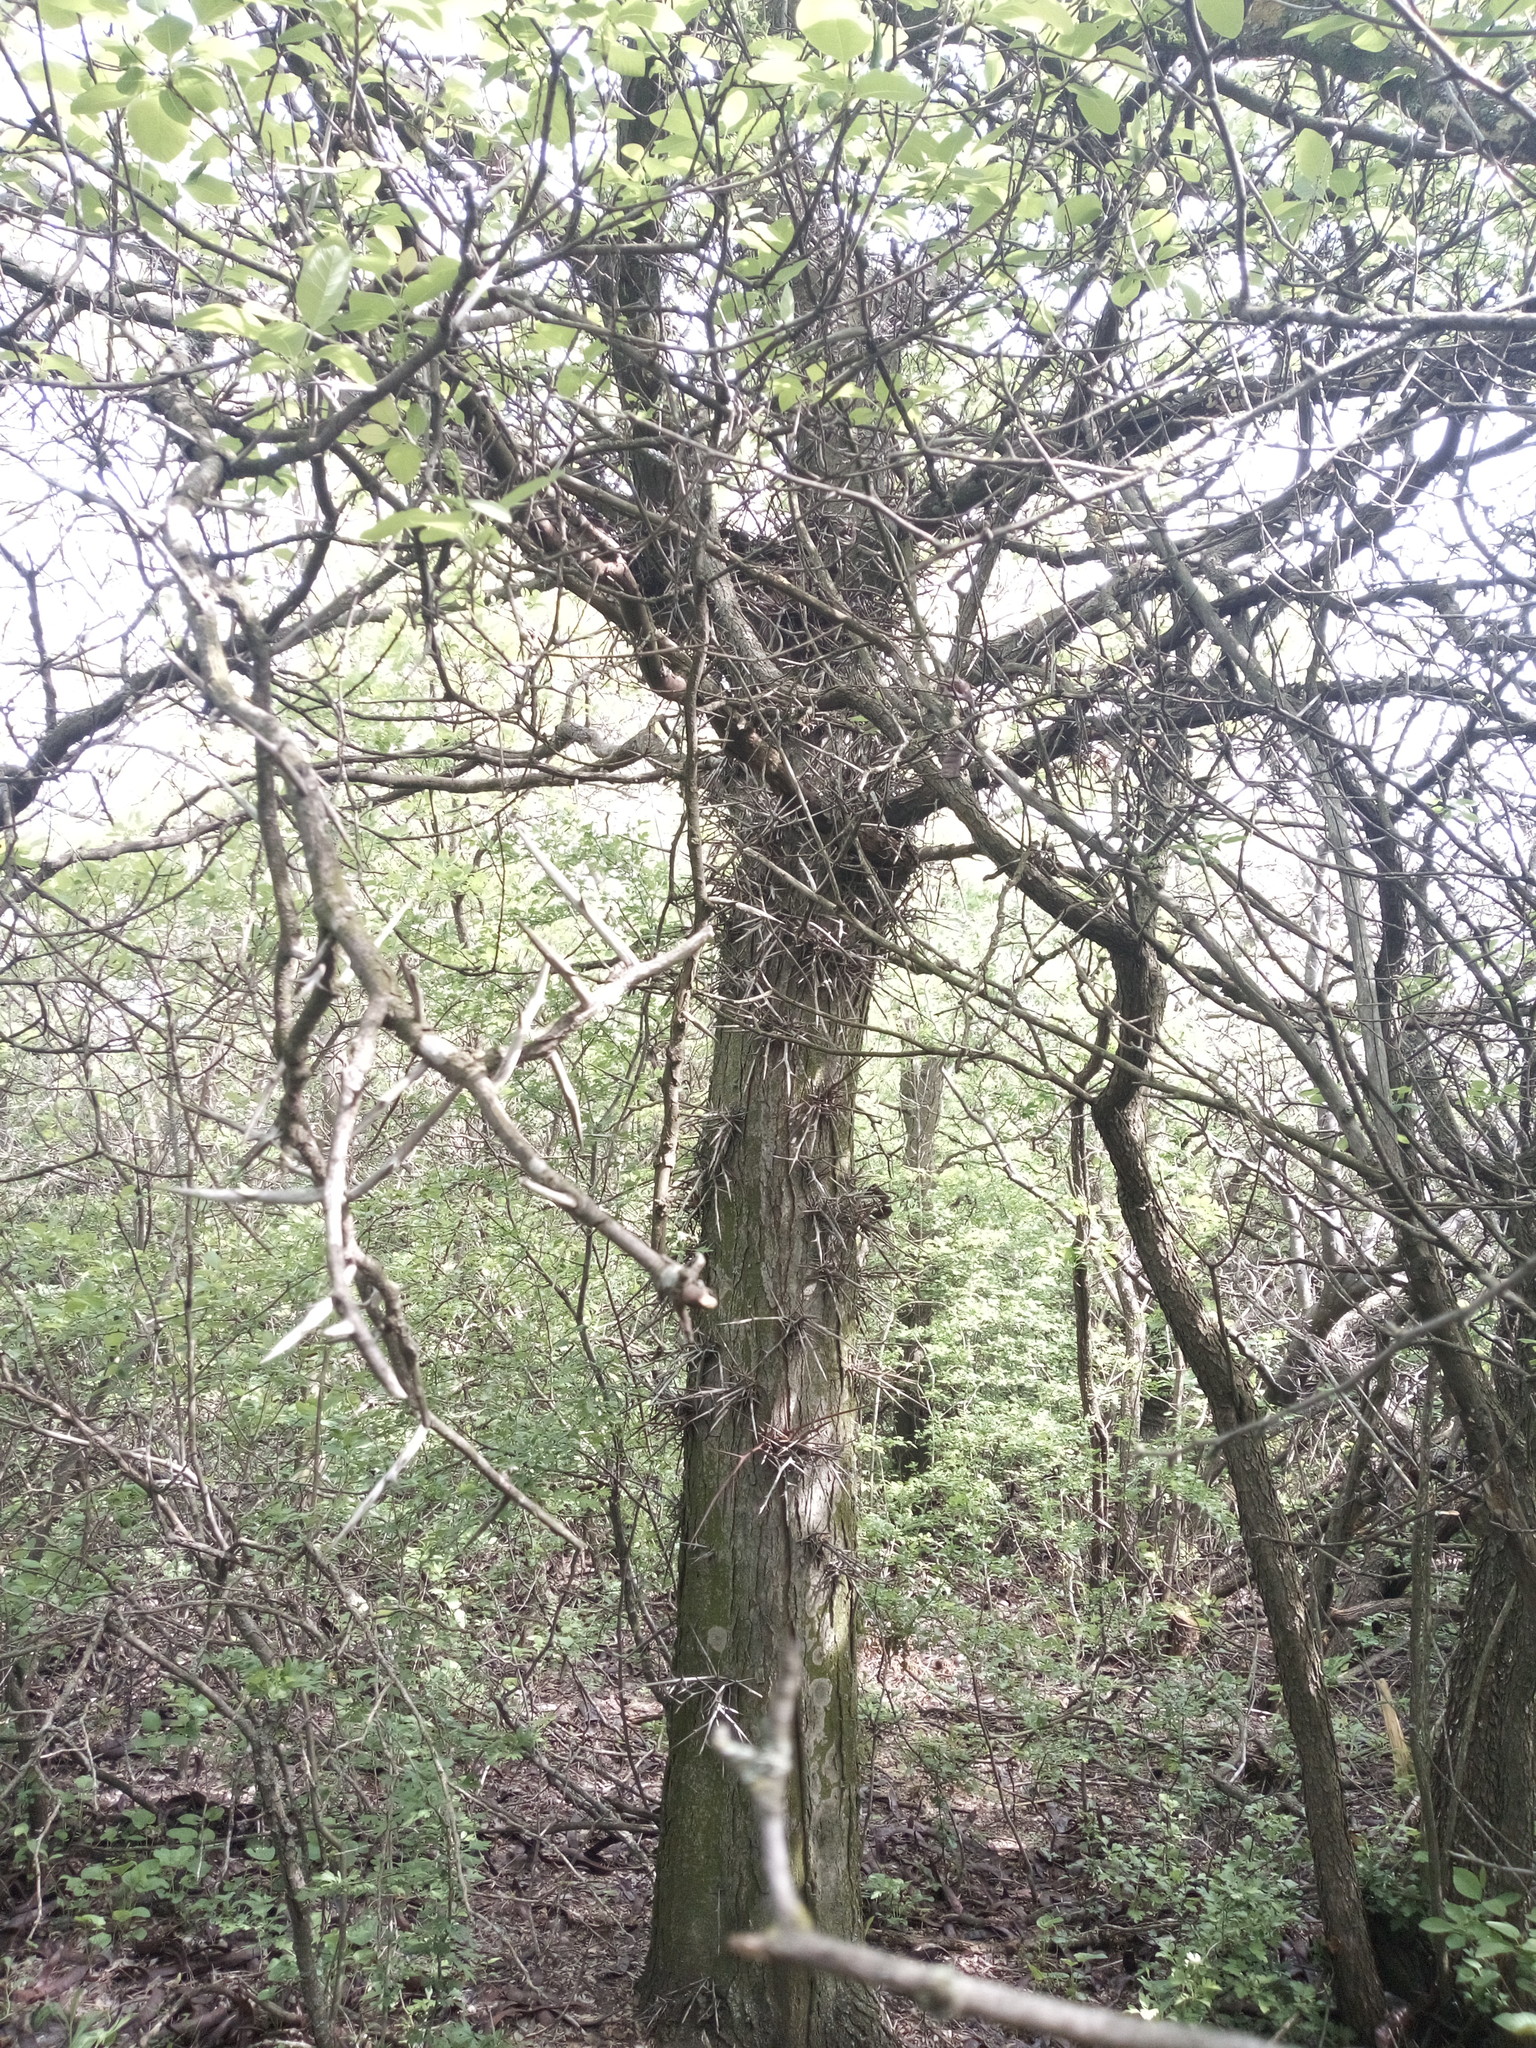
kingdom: Plantae
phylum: Tracheophyta
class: Magnoliopsida
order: Fabales
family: Fabaceae
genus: Gleditsia
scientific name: Gleditsia triacanthos
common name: Common honeylocust
